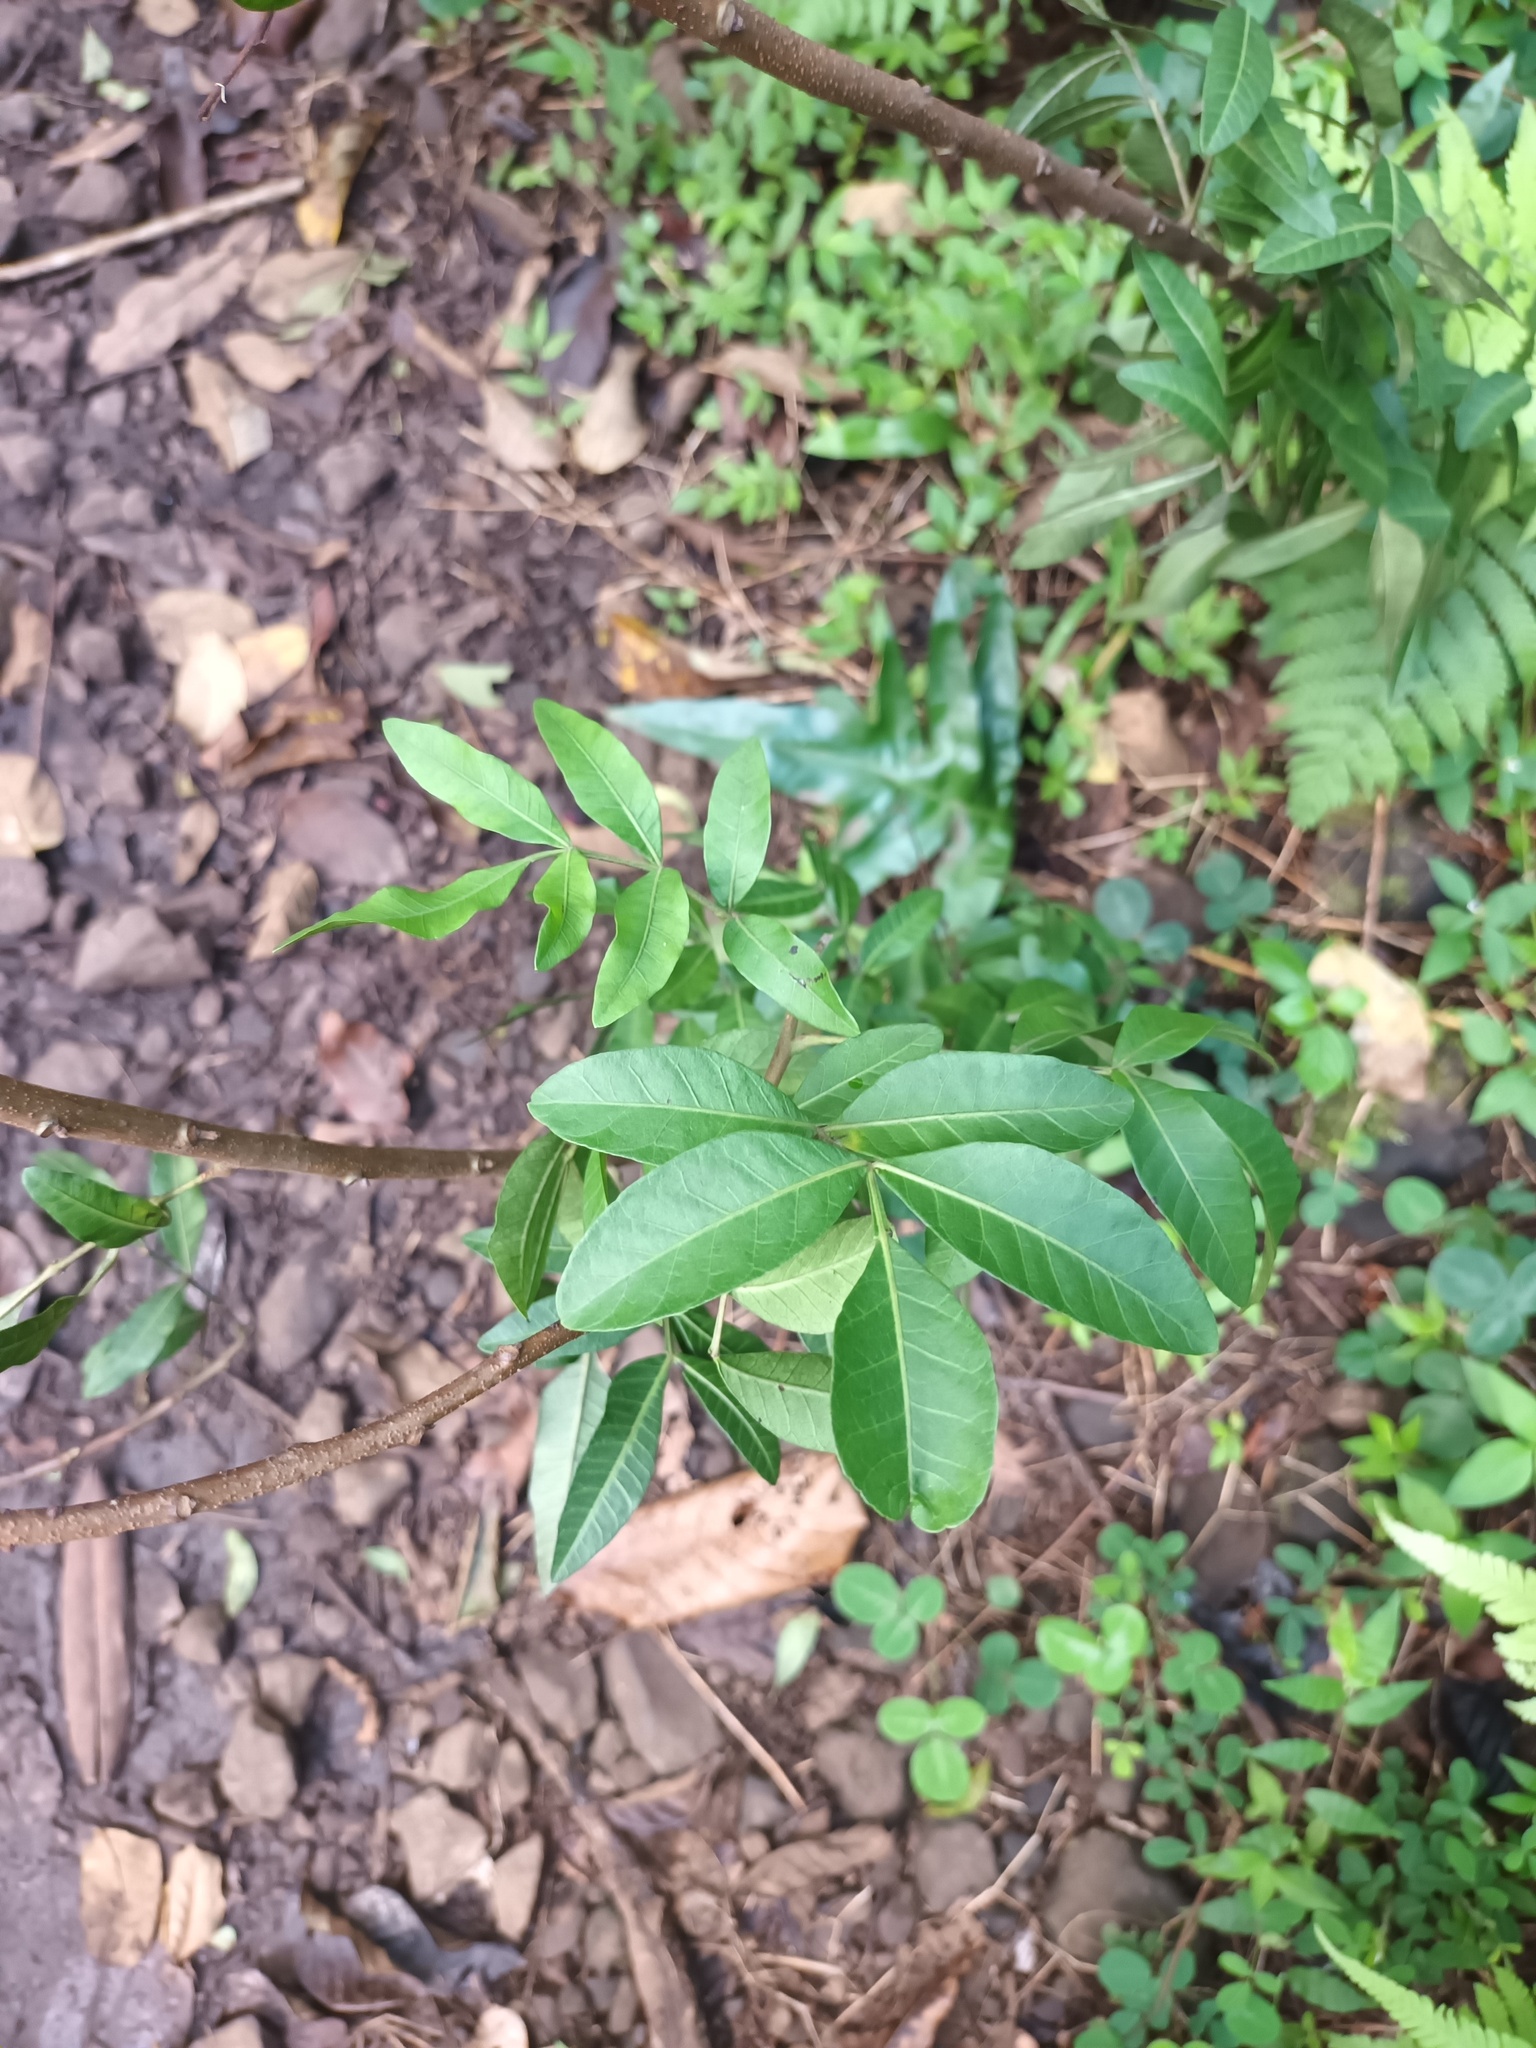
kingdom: Plantae
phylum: Tracheophyta
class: Magnoliopsida
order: Sapindales
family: Anacardiaceae
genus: Schinus
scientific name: Schinus terebinthifolia
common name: Brazilian peppertree
